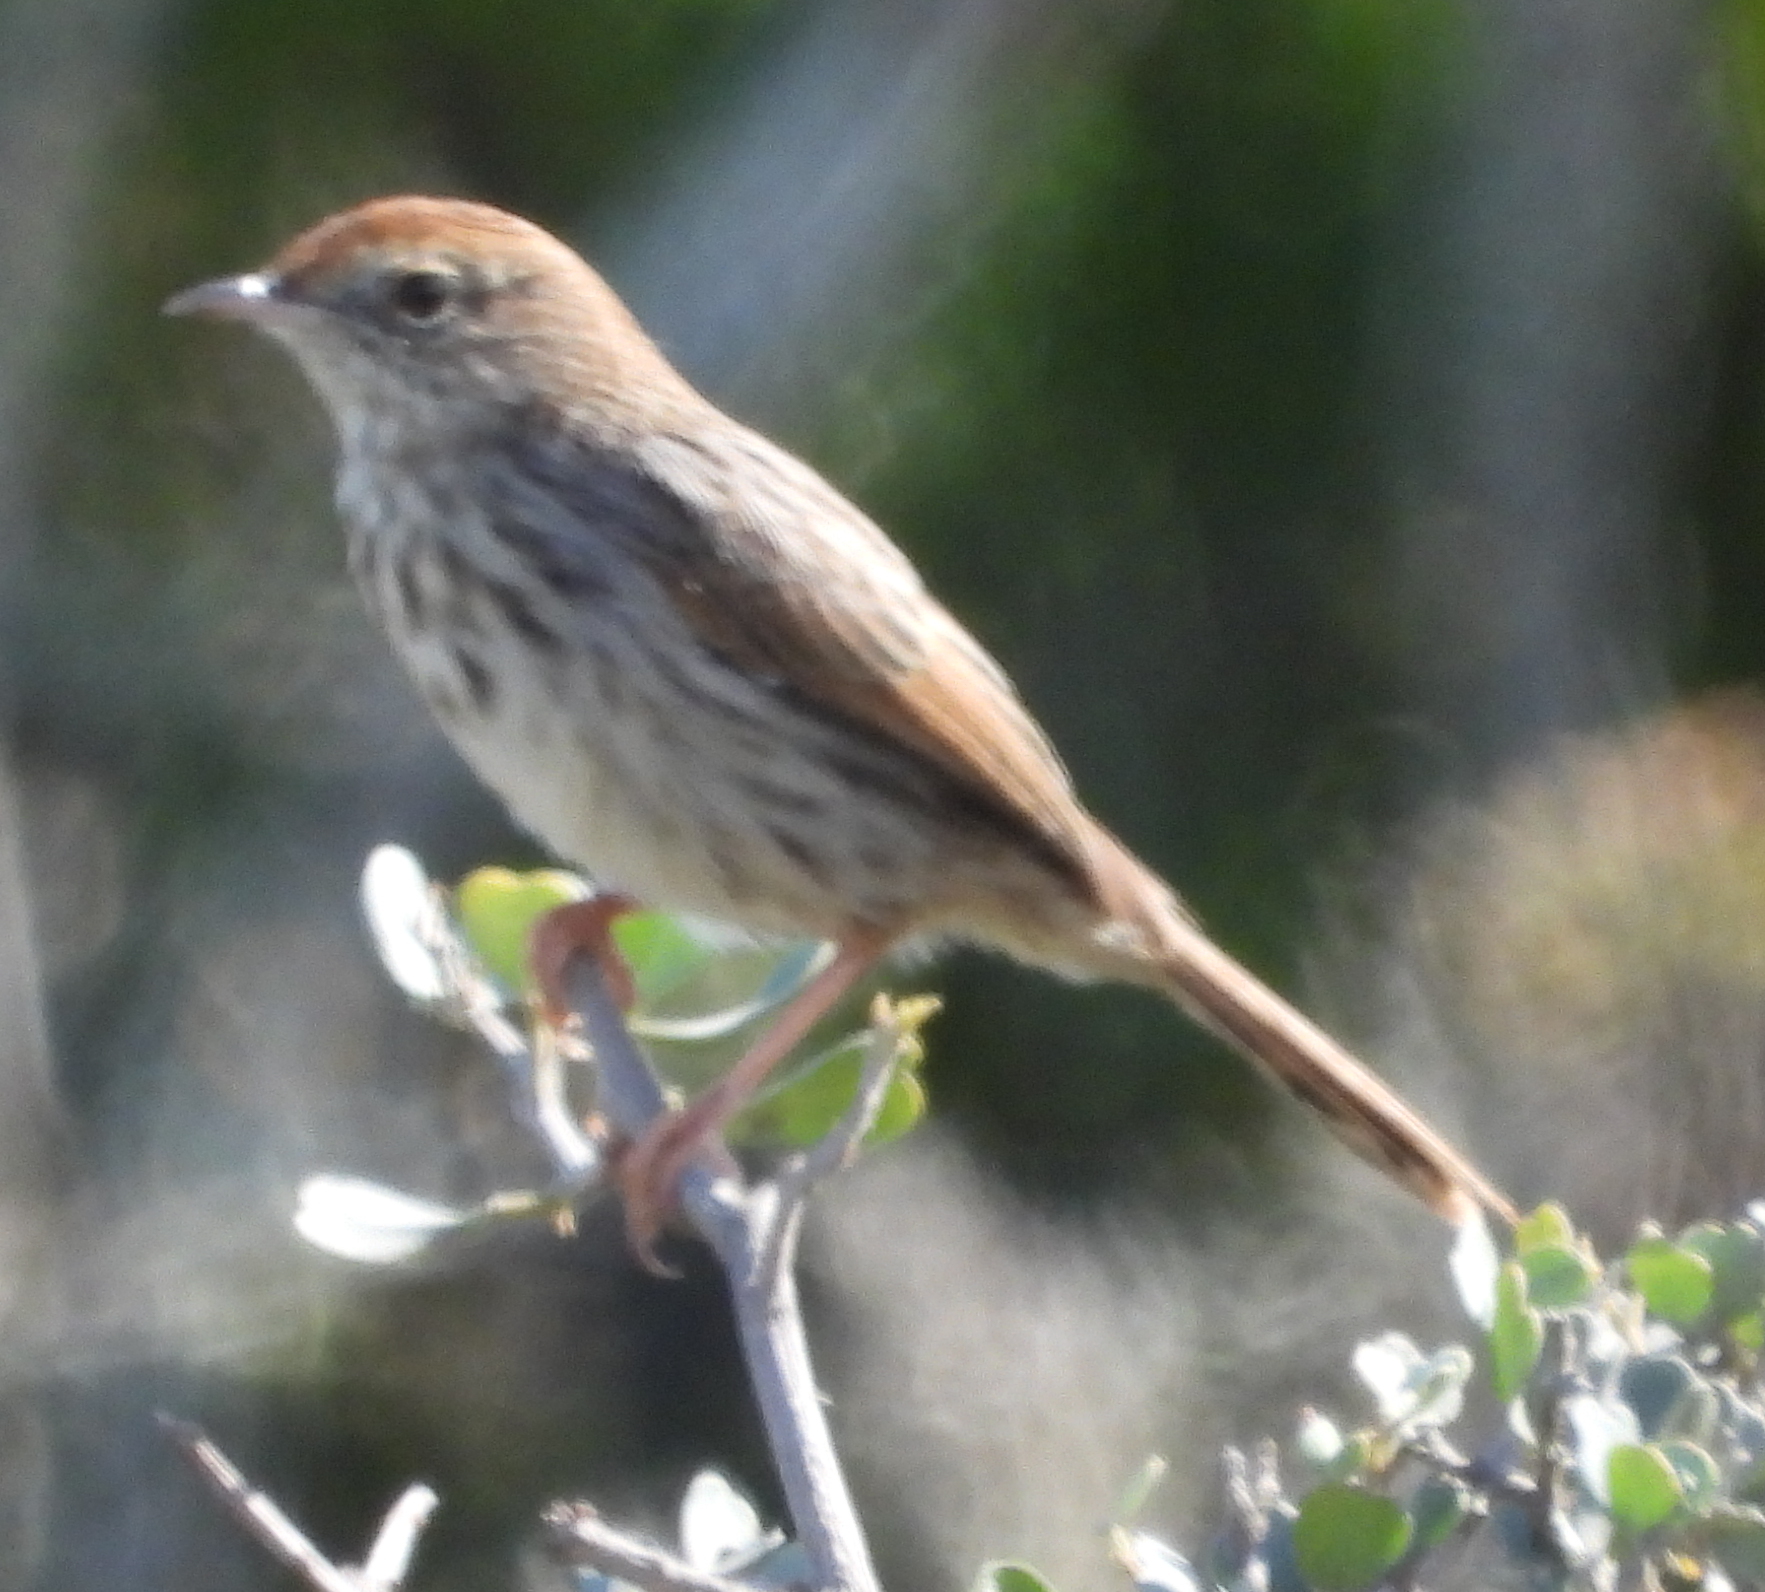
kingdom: Animalia
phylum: Chordata
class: Aves
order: Passeriformes
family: Cisticolidae
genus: Cisticola
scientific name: Cisticola subruficapilla
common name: Grey-backed cisticola
